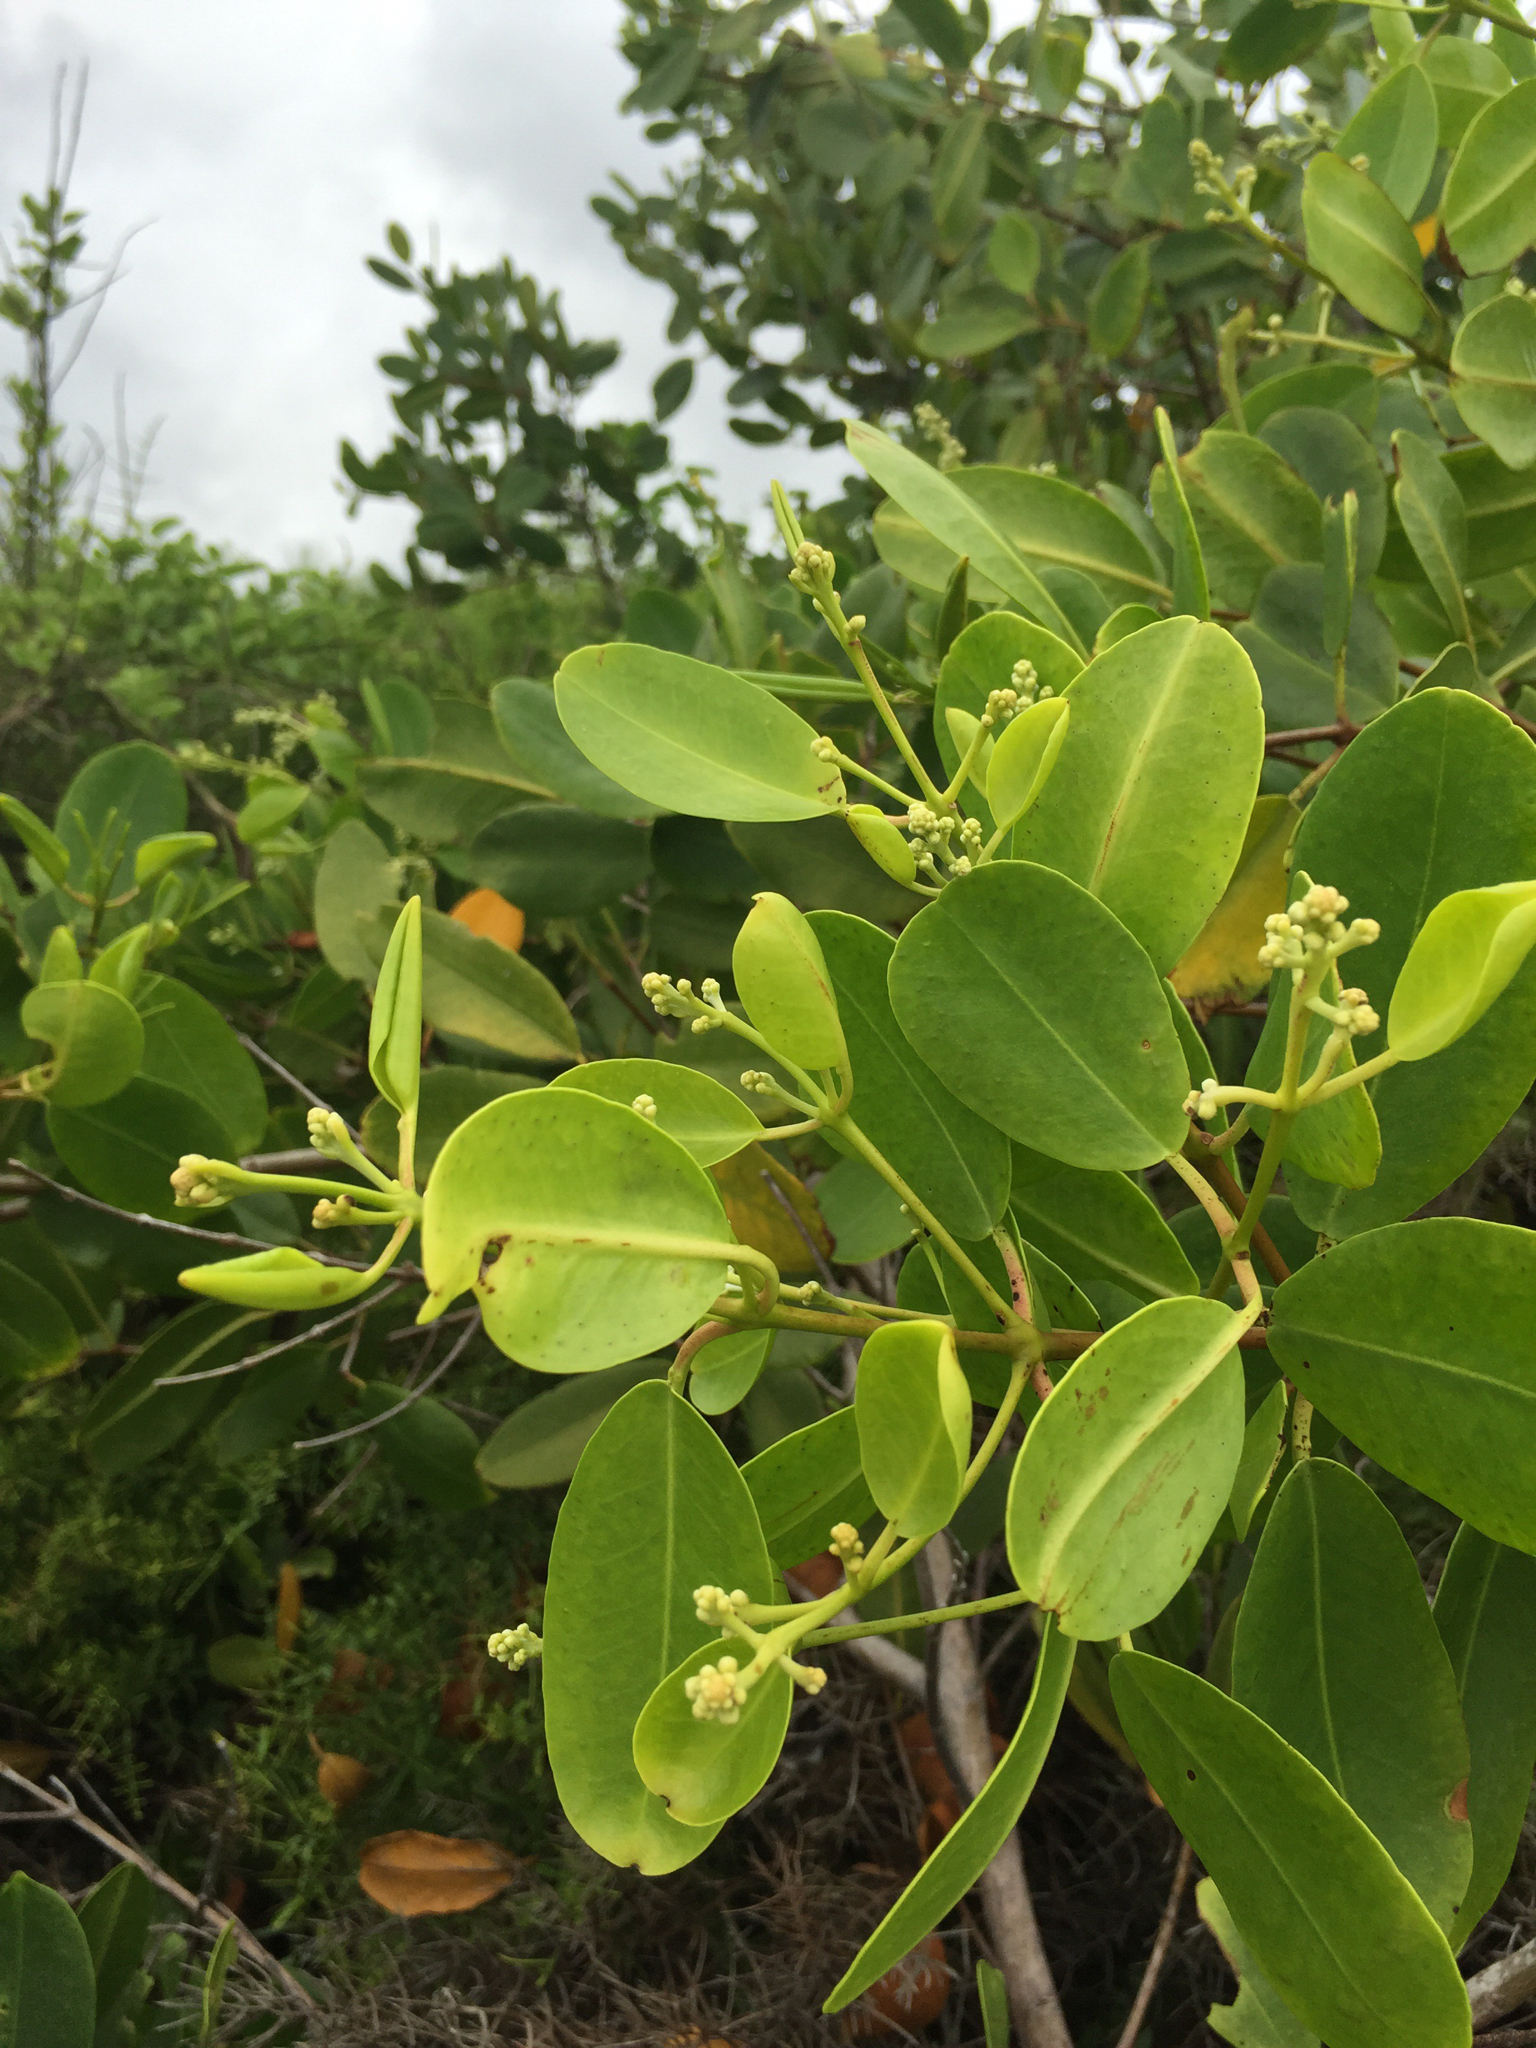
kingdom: Plantae
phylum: Tracheophyta
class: Magnoliopsida
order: Myrtales
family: Combretaceae
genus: Laguncularia
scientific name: Laguncularia racemosa
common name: White mangrove
